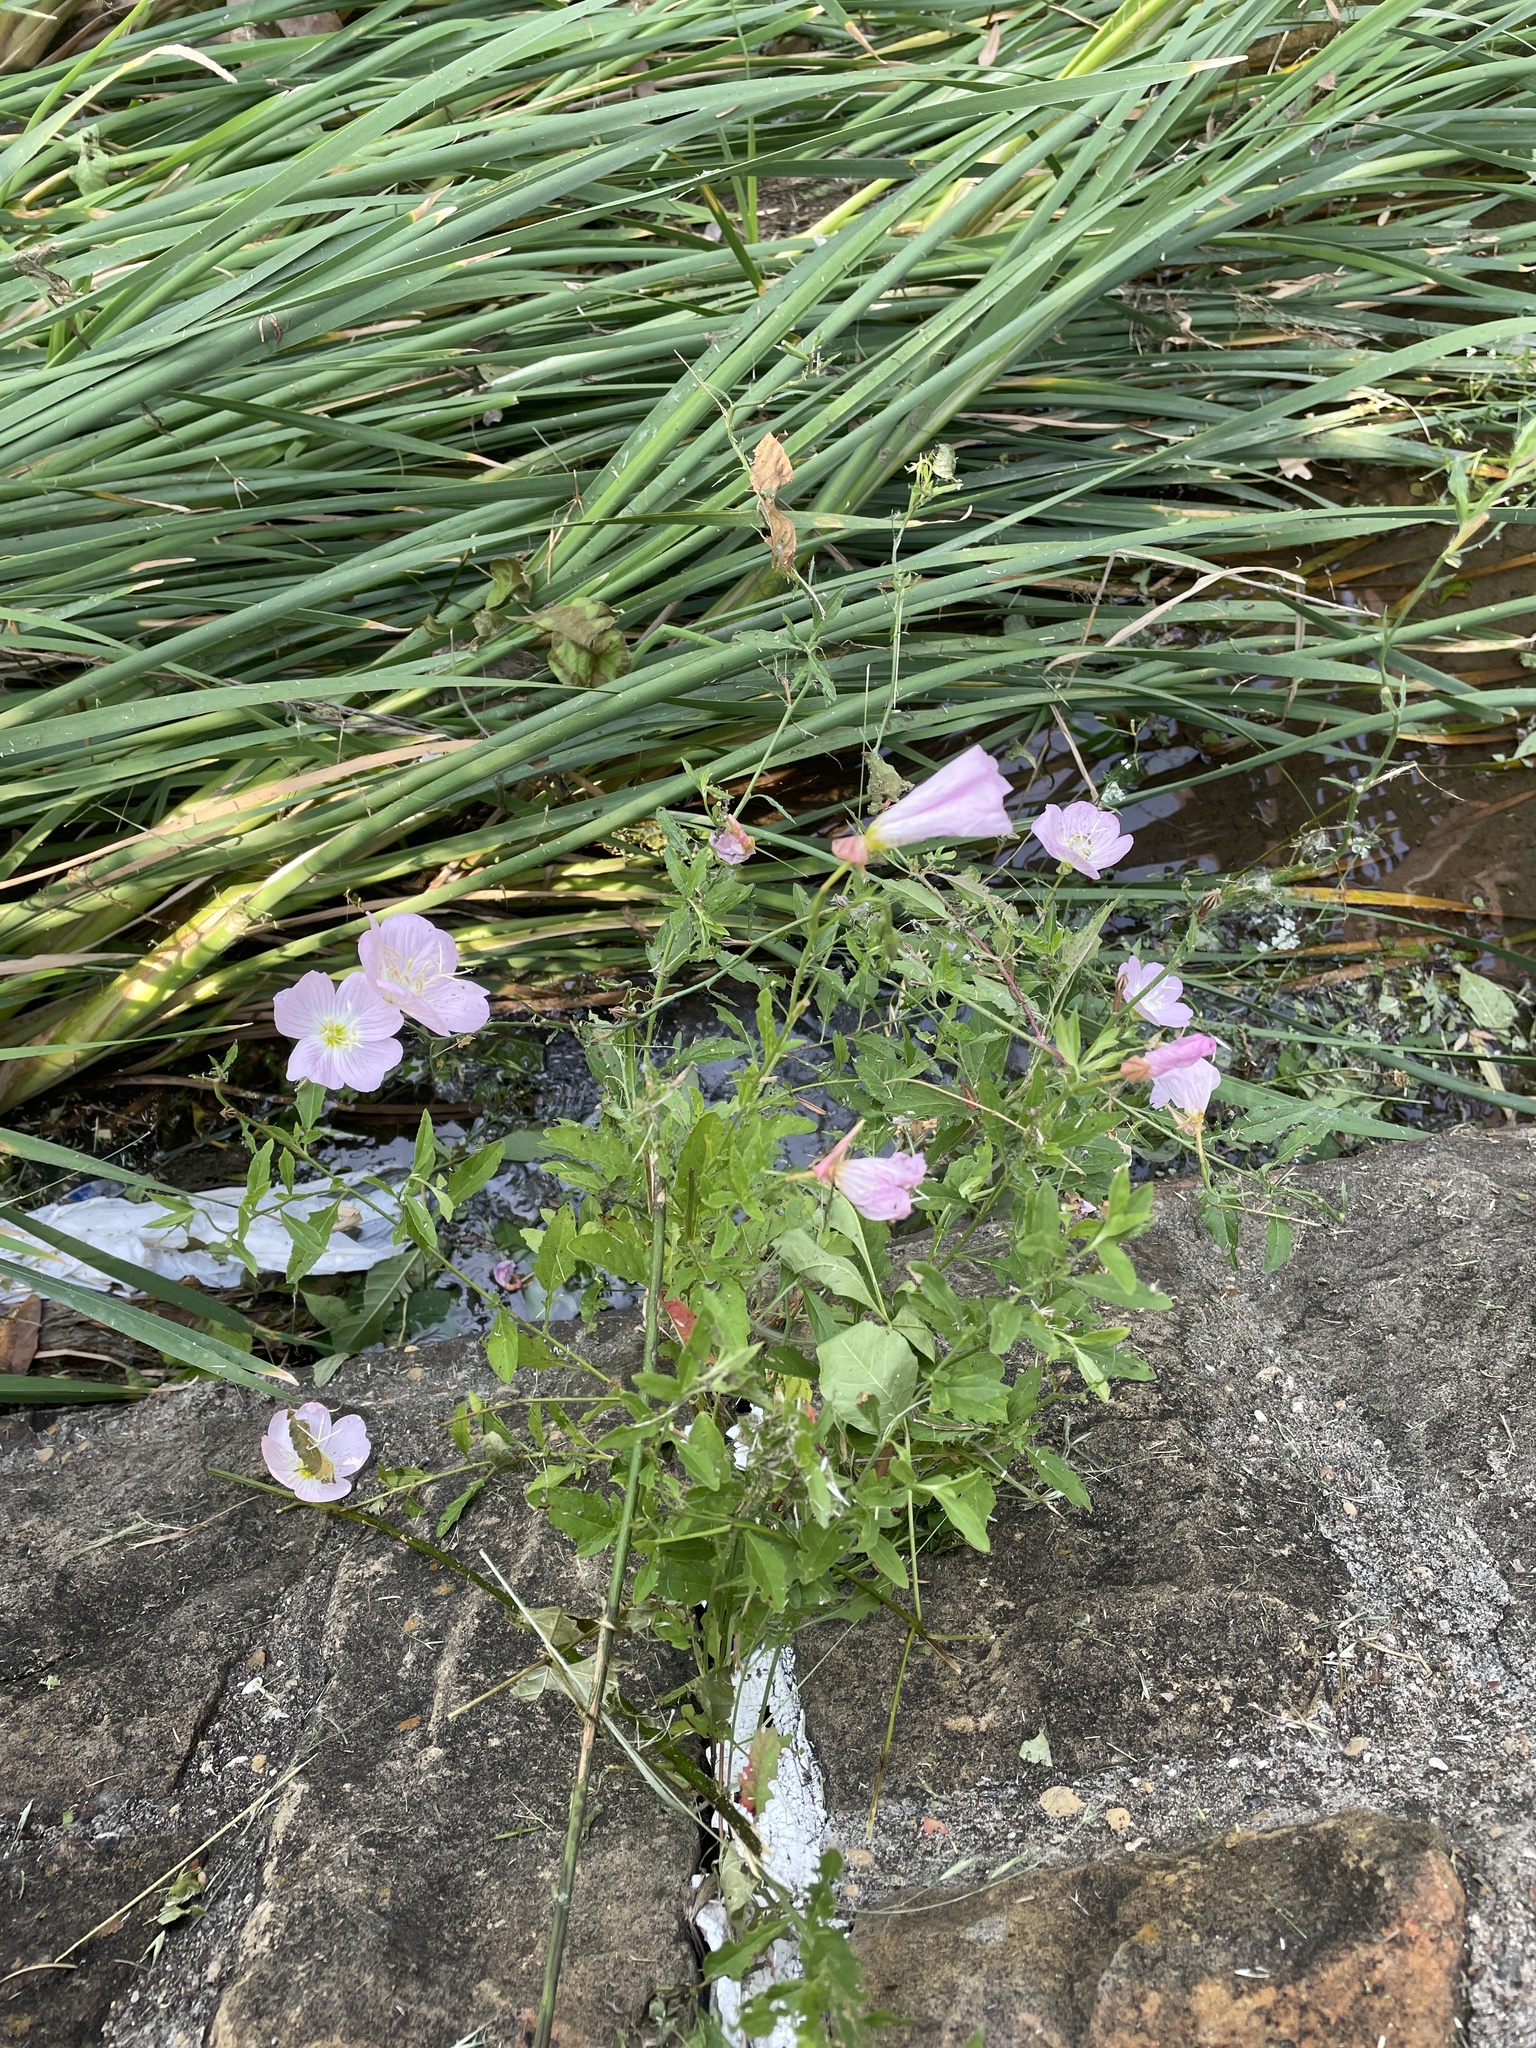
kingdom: Plantae
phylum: Tracheophyta
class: Magnoliopsida
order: Myrtales
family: Onagraceae
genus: Oenothera
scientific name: Oenothera speciosa
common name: White evening-primrose
